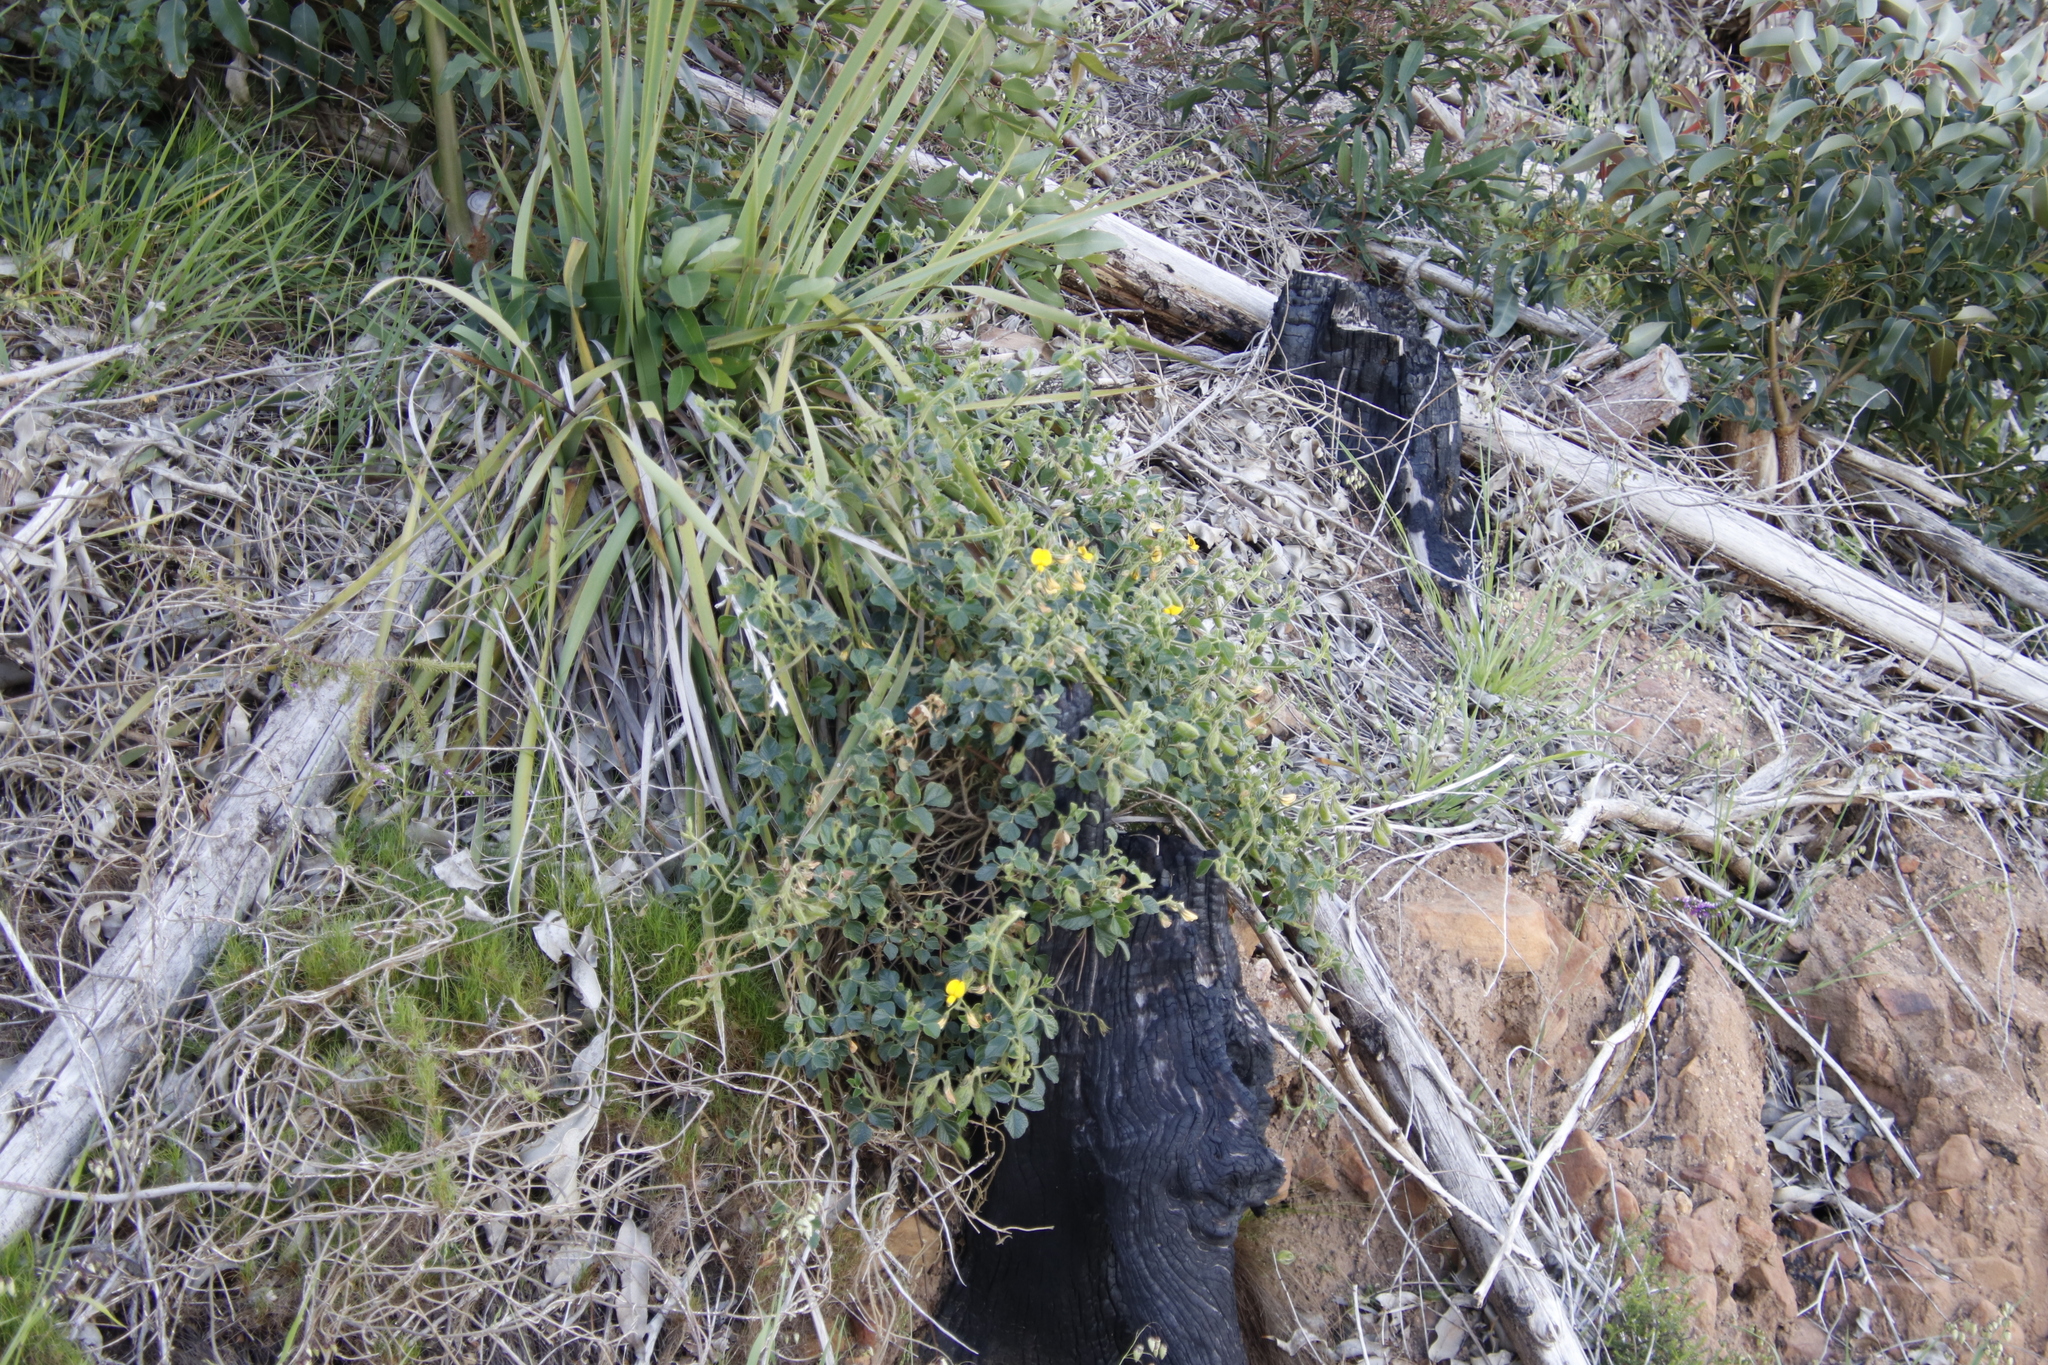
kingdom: Plantae
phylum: Tracheophyta
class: Magnoliopsida
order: Fabales
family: Fabaceae
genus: Bolusafra
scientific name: Bolusafra bituminosa
